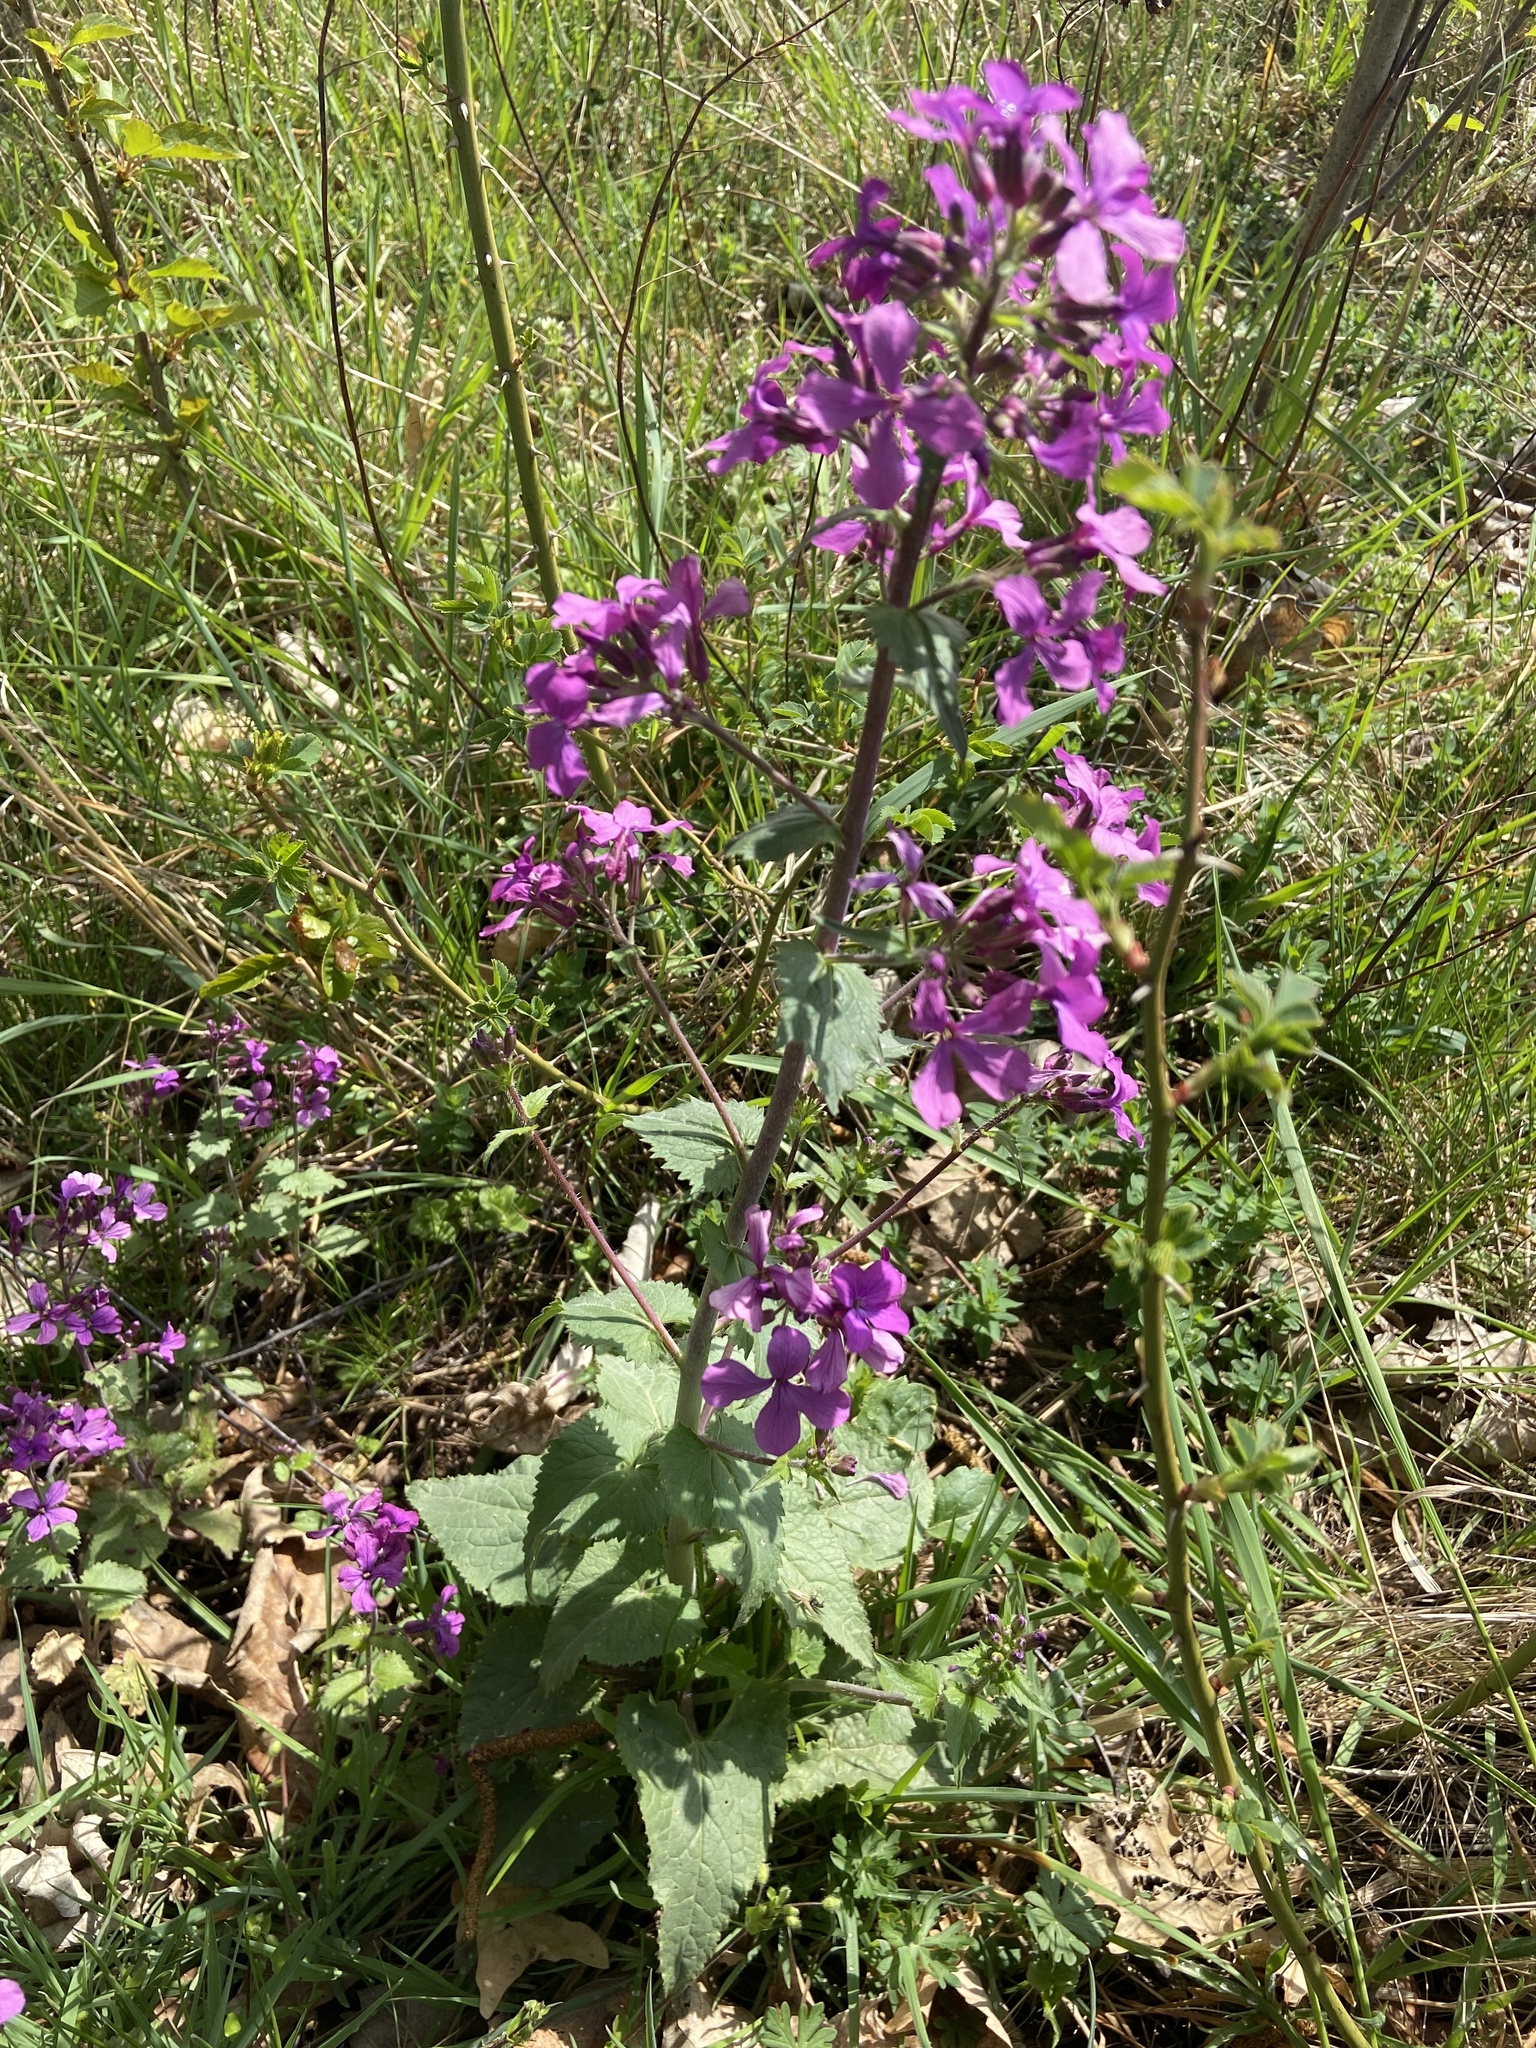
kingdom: Plantae
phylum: Tracheophyta
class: Magnoliopsida
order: Brassicales
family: Brassicaceae
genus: Lunaria
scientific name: Lunaria annua
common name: Honesty
